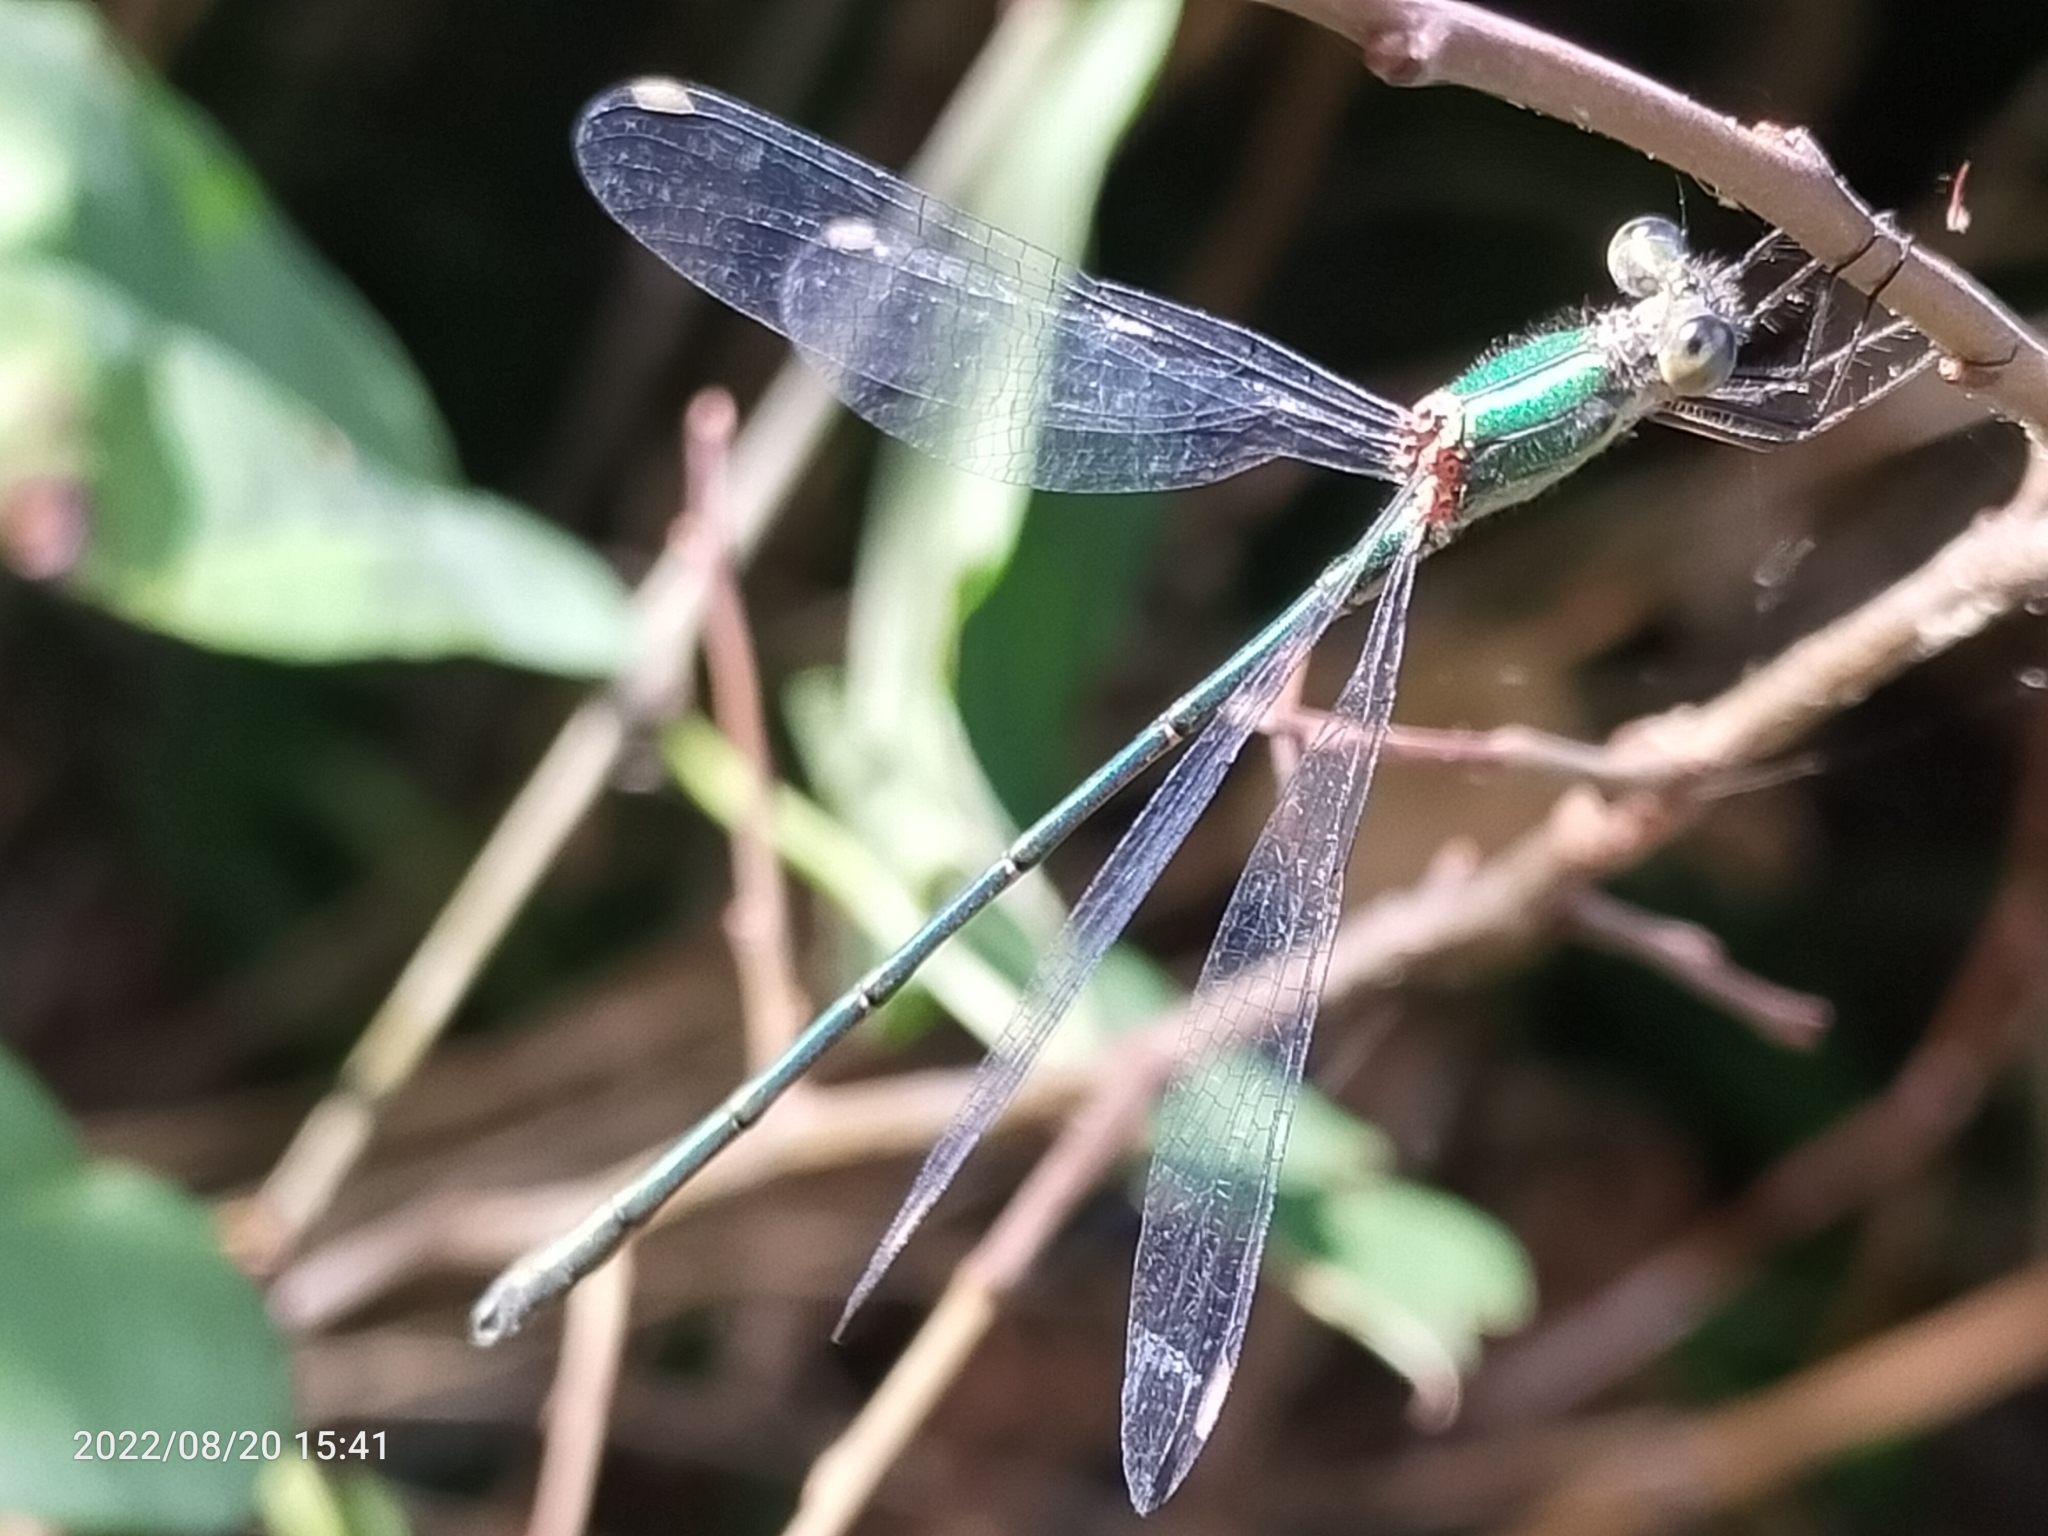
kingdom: Animalia
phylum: Arthropoda
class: Insecta
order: Odonata
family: Lestidae
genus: Chalcolestes
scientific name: Chalcolestes viridis
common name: Green emerald damselfly
